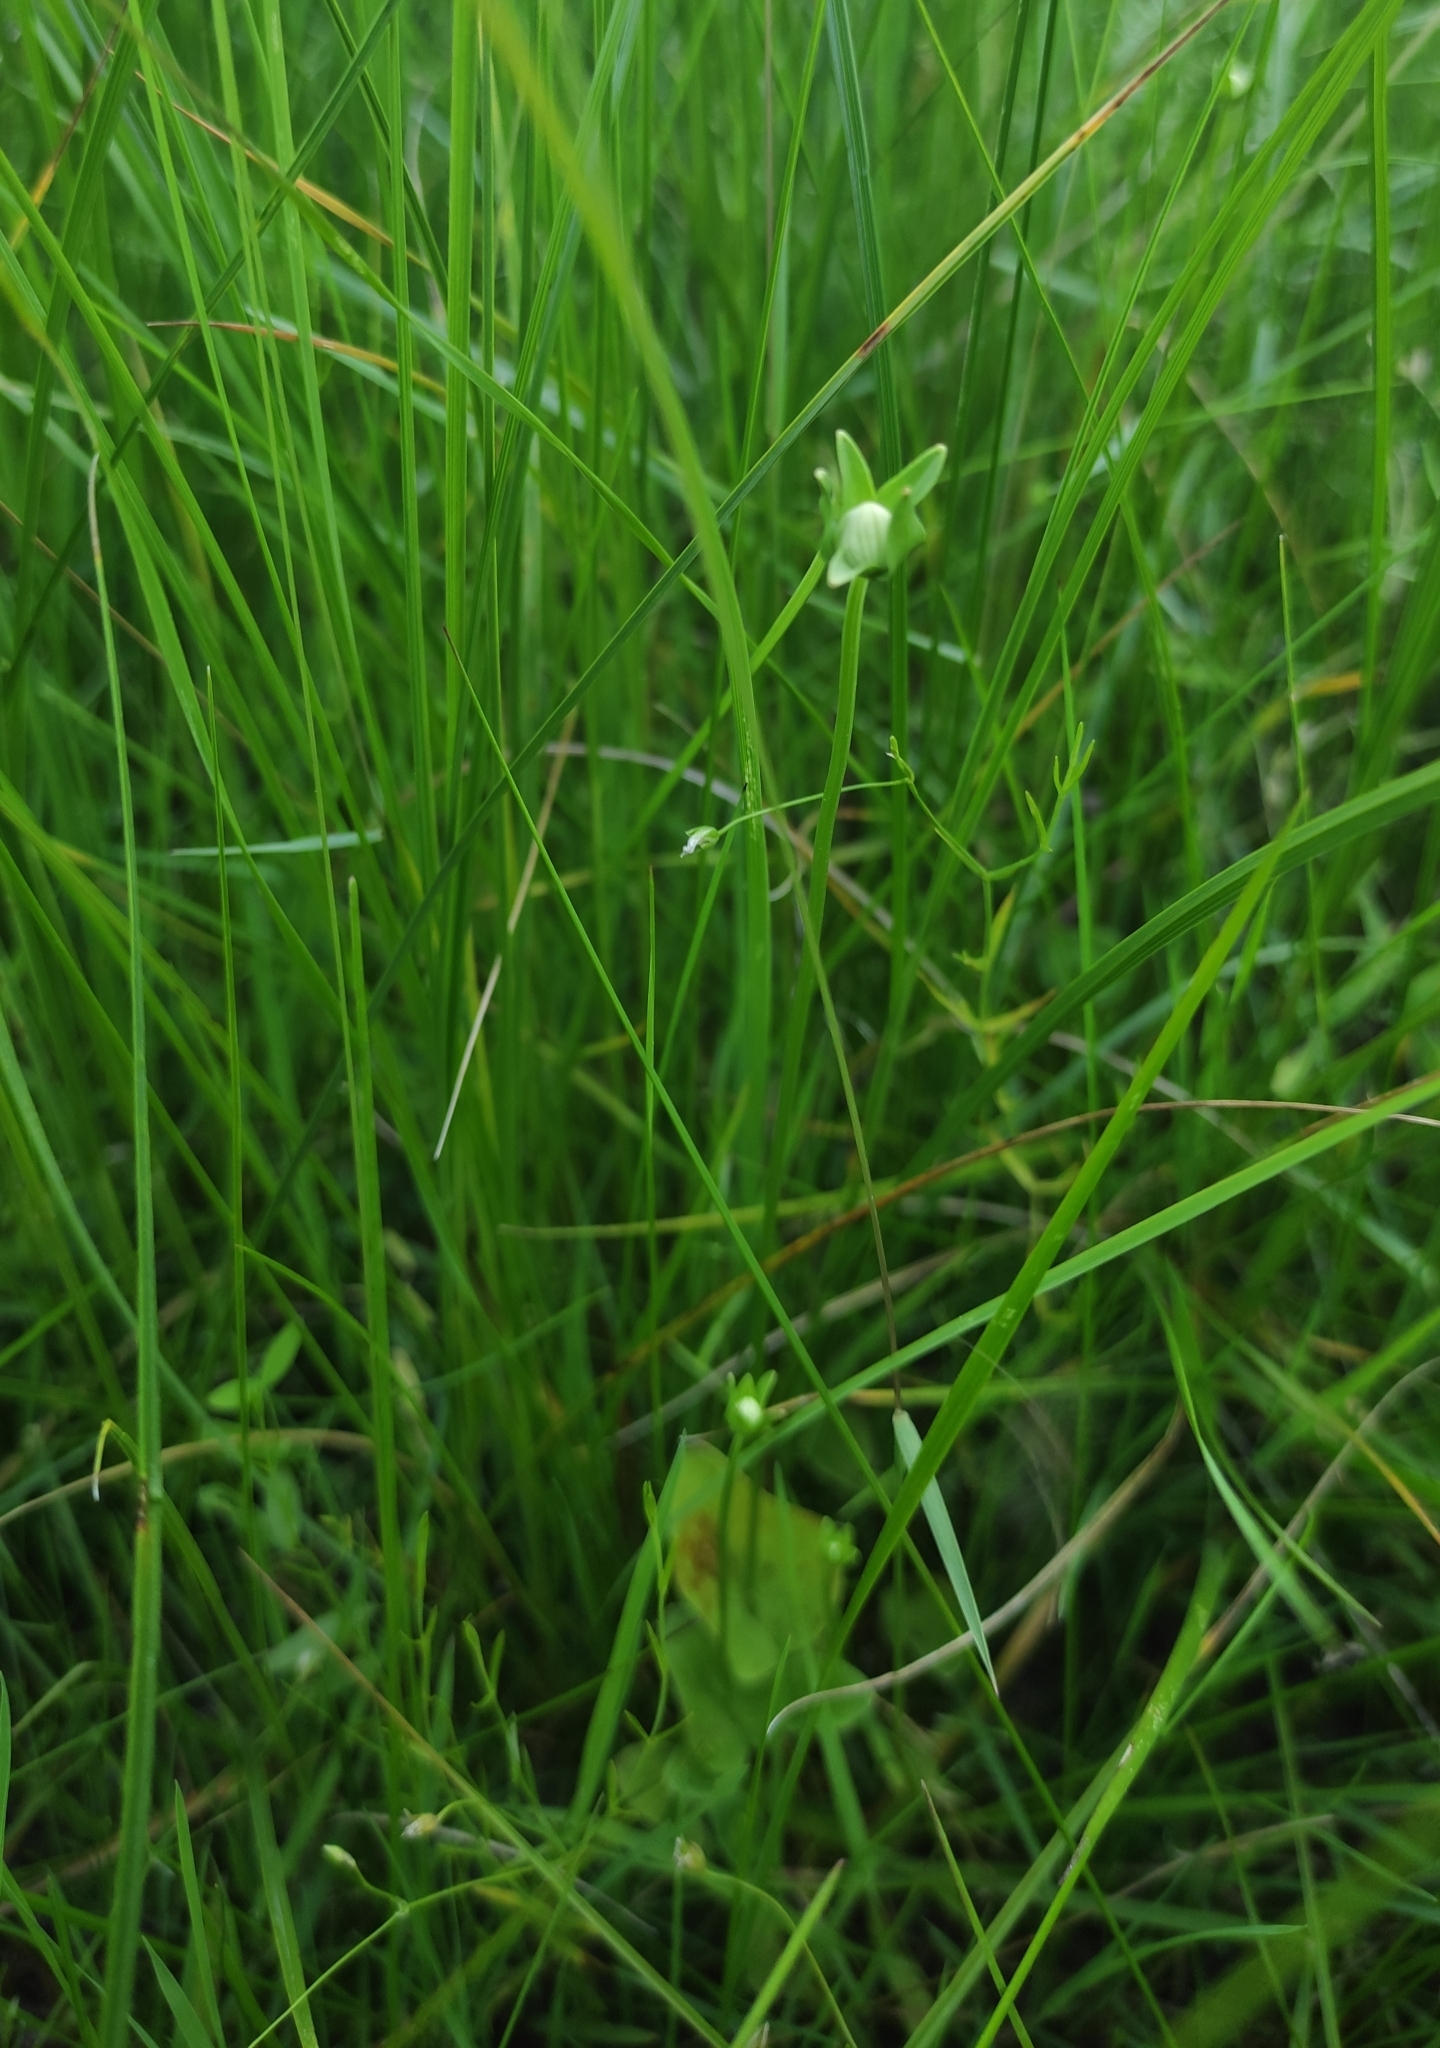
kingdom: Plantae
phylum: Tracheophyta
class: Magnoliopsida
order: Celastrales
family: Parnassiaceae
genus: Parnassia
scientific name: Parnassia palustris
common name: Grass-of-parnassus
